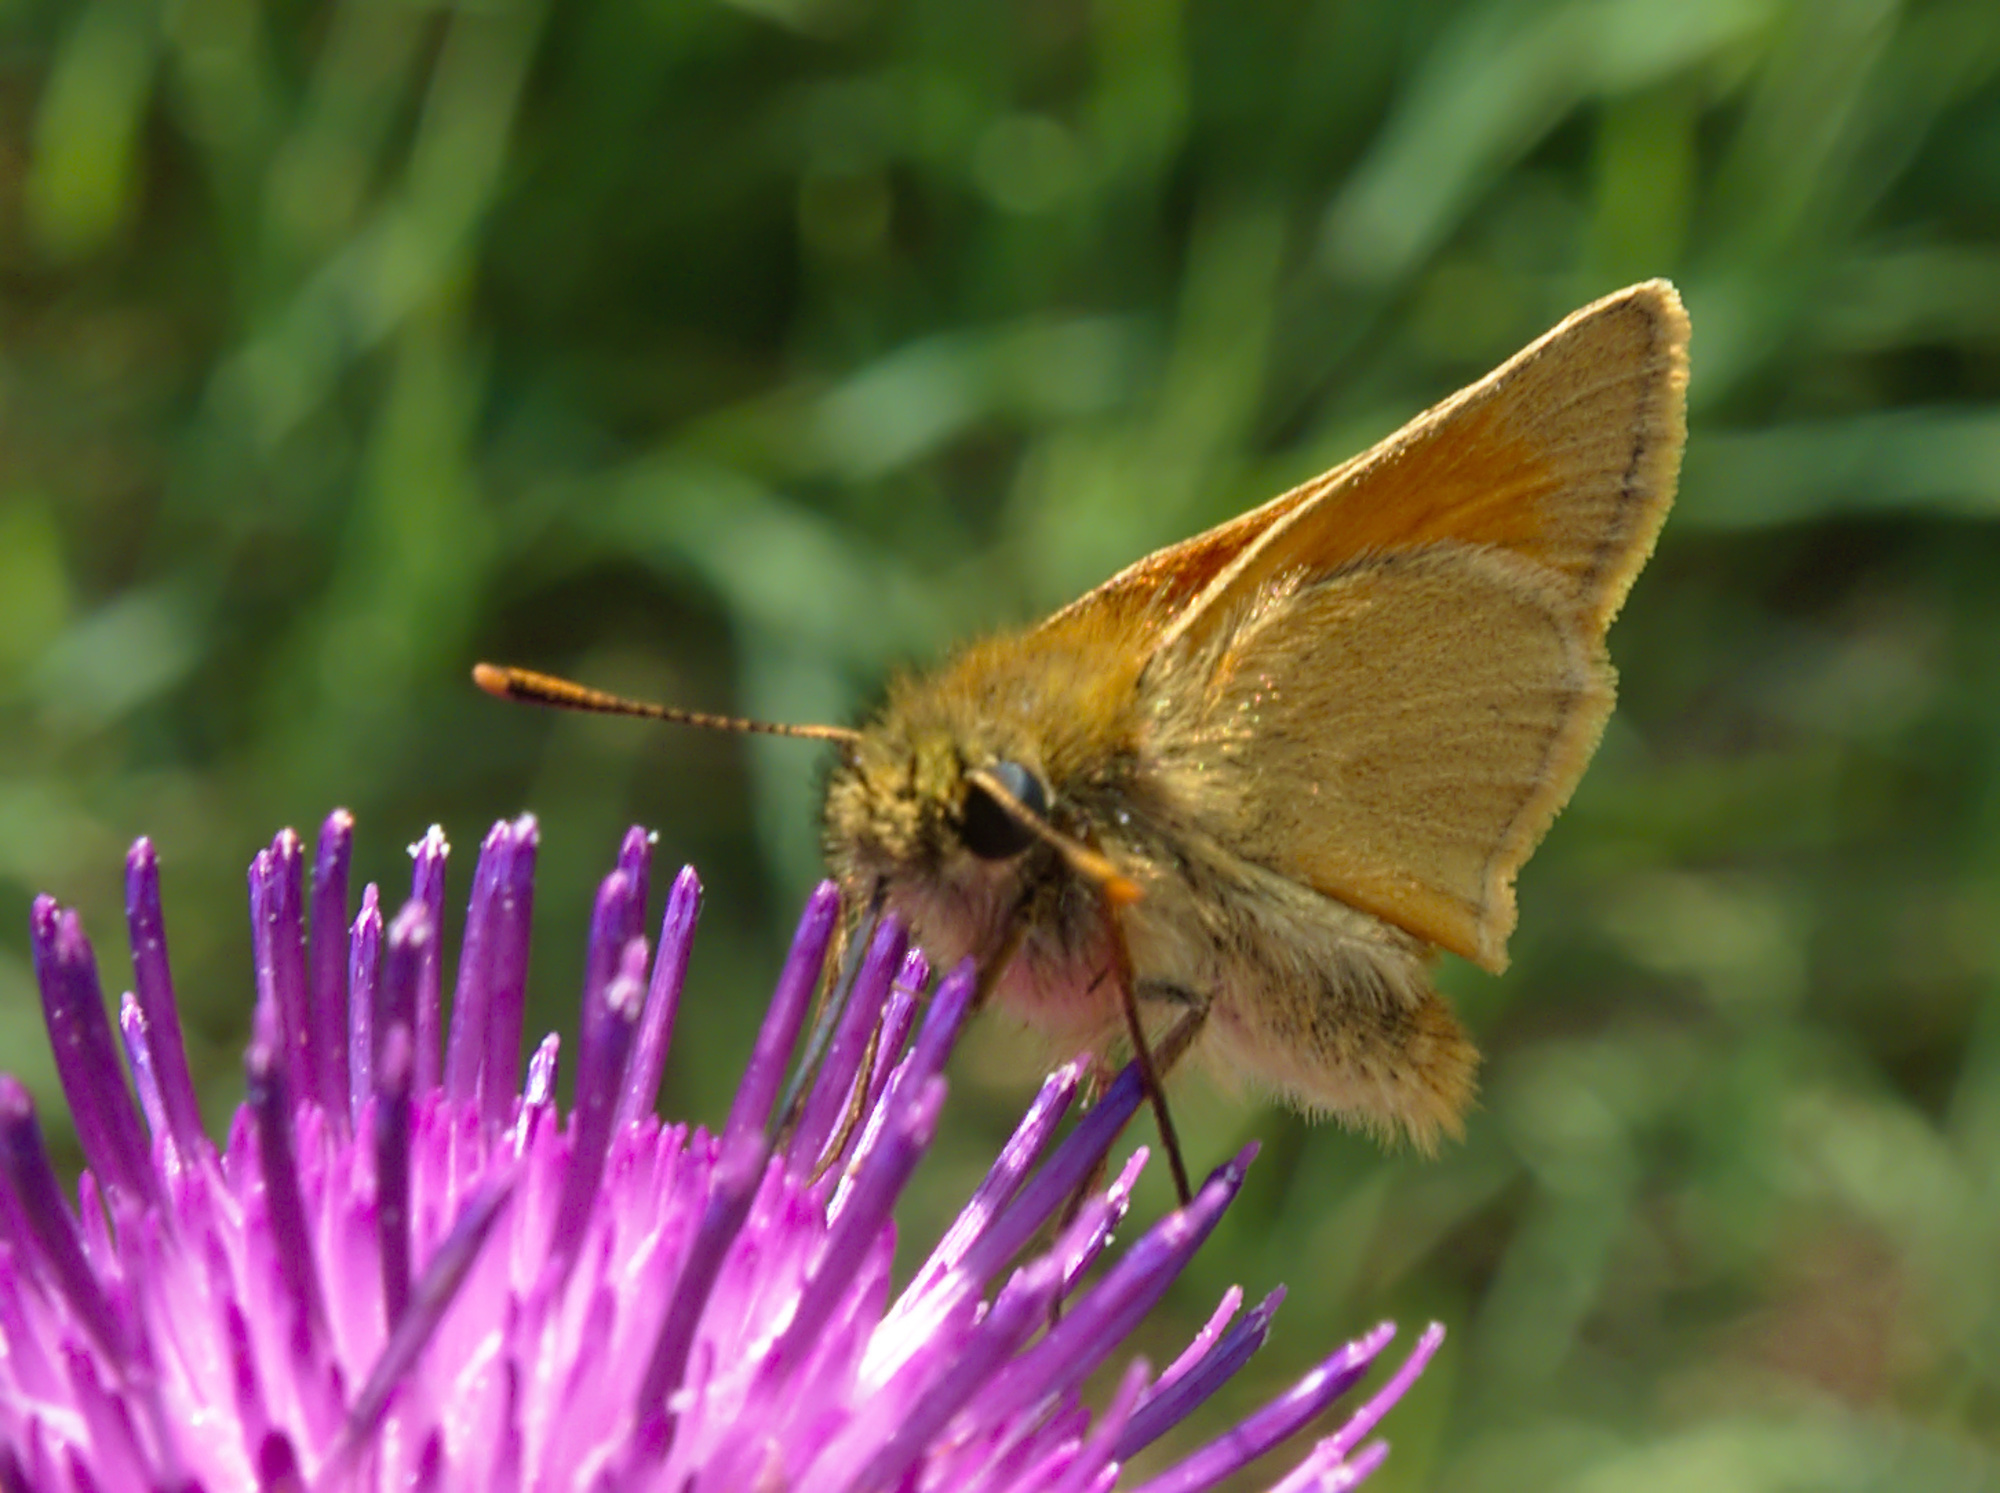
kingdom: Animalia
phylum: Arthropoda
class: Insecta
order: Lepidoptera
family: Hesperiidae
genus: Thymelicus
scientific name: Thymelicus sylvestris
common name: Small skipper
